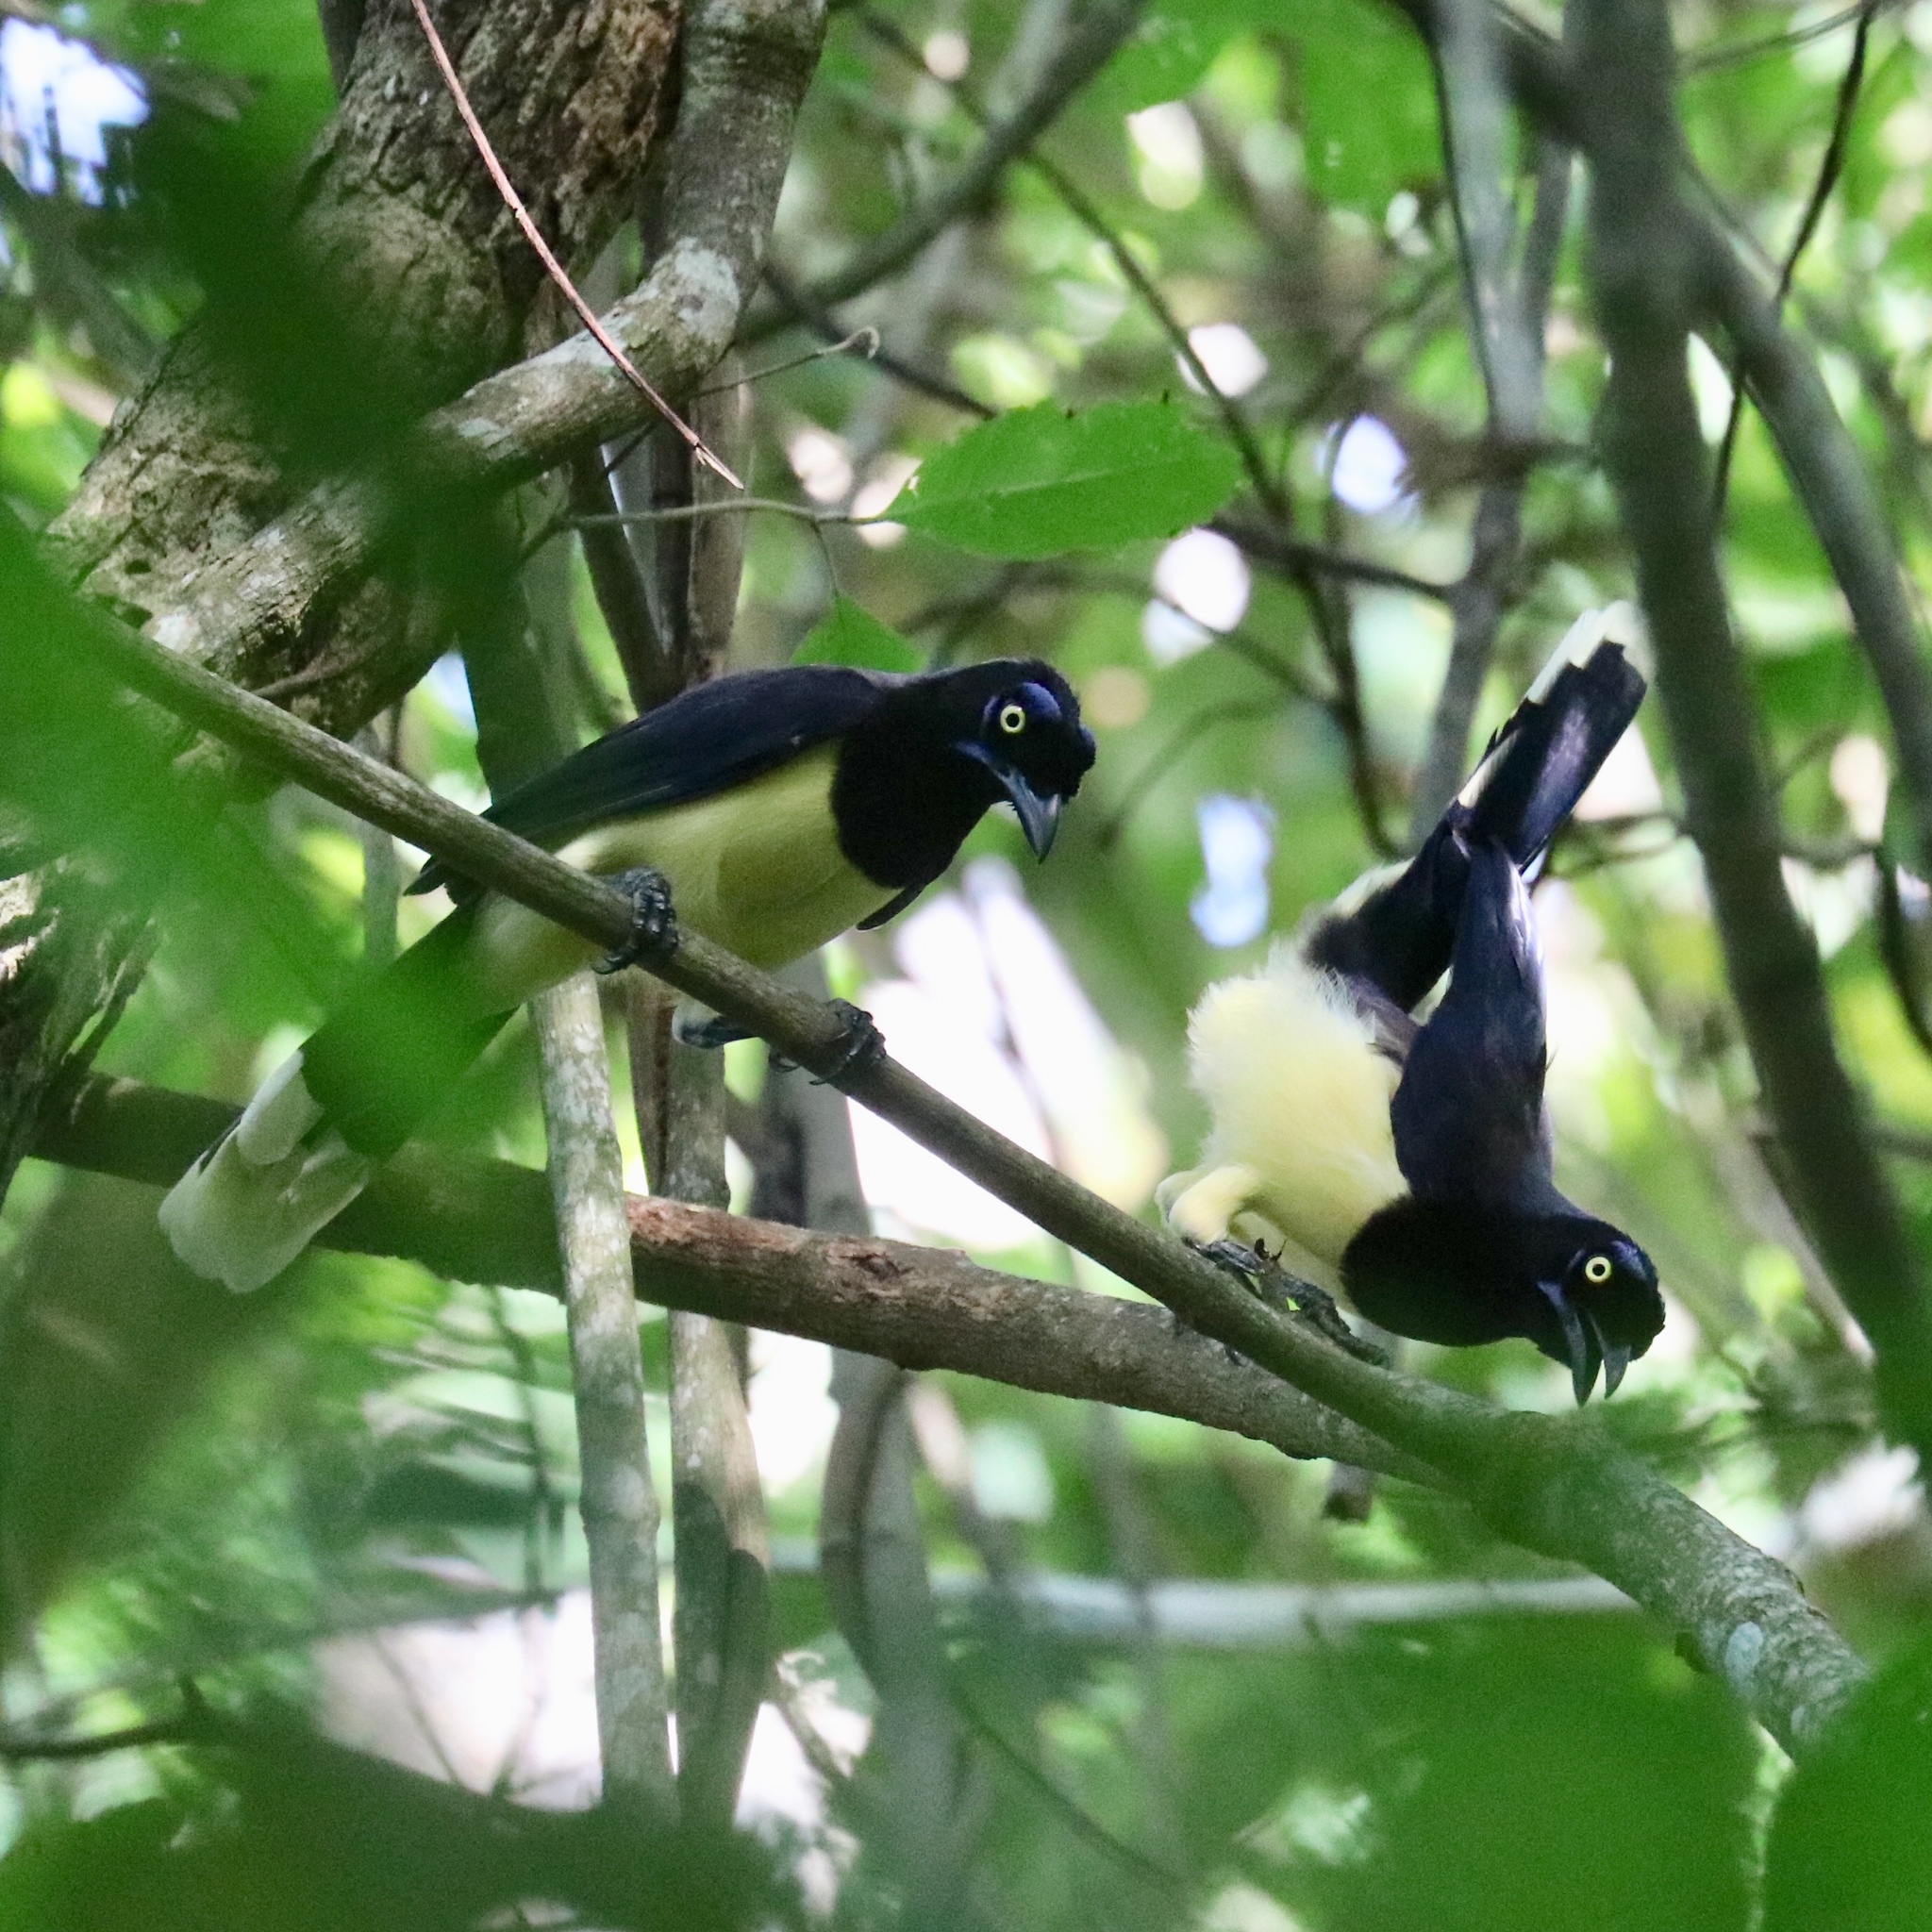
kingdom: Animalia
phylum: Chordata
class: Aves
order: Passeriformes
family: Corvidae
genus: Cyanocorax
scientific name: Cyanocorax affinis
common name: Black-chested jay
